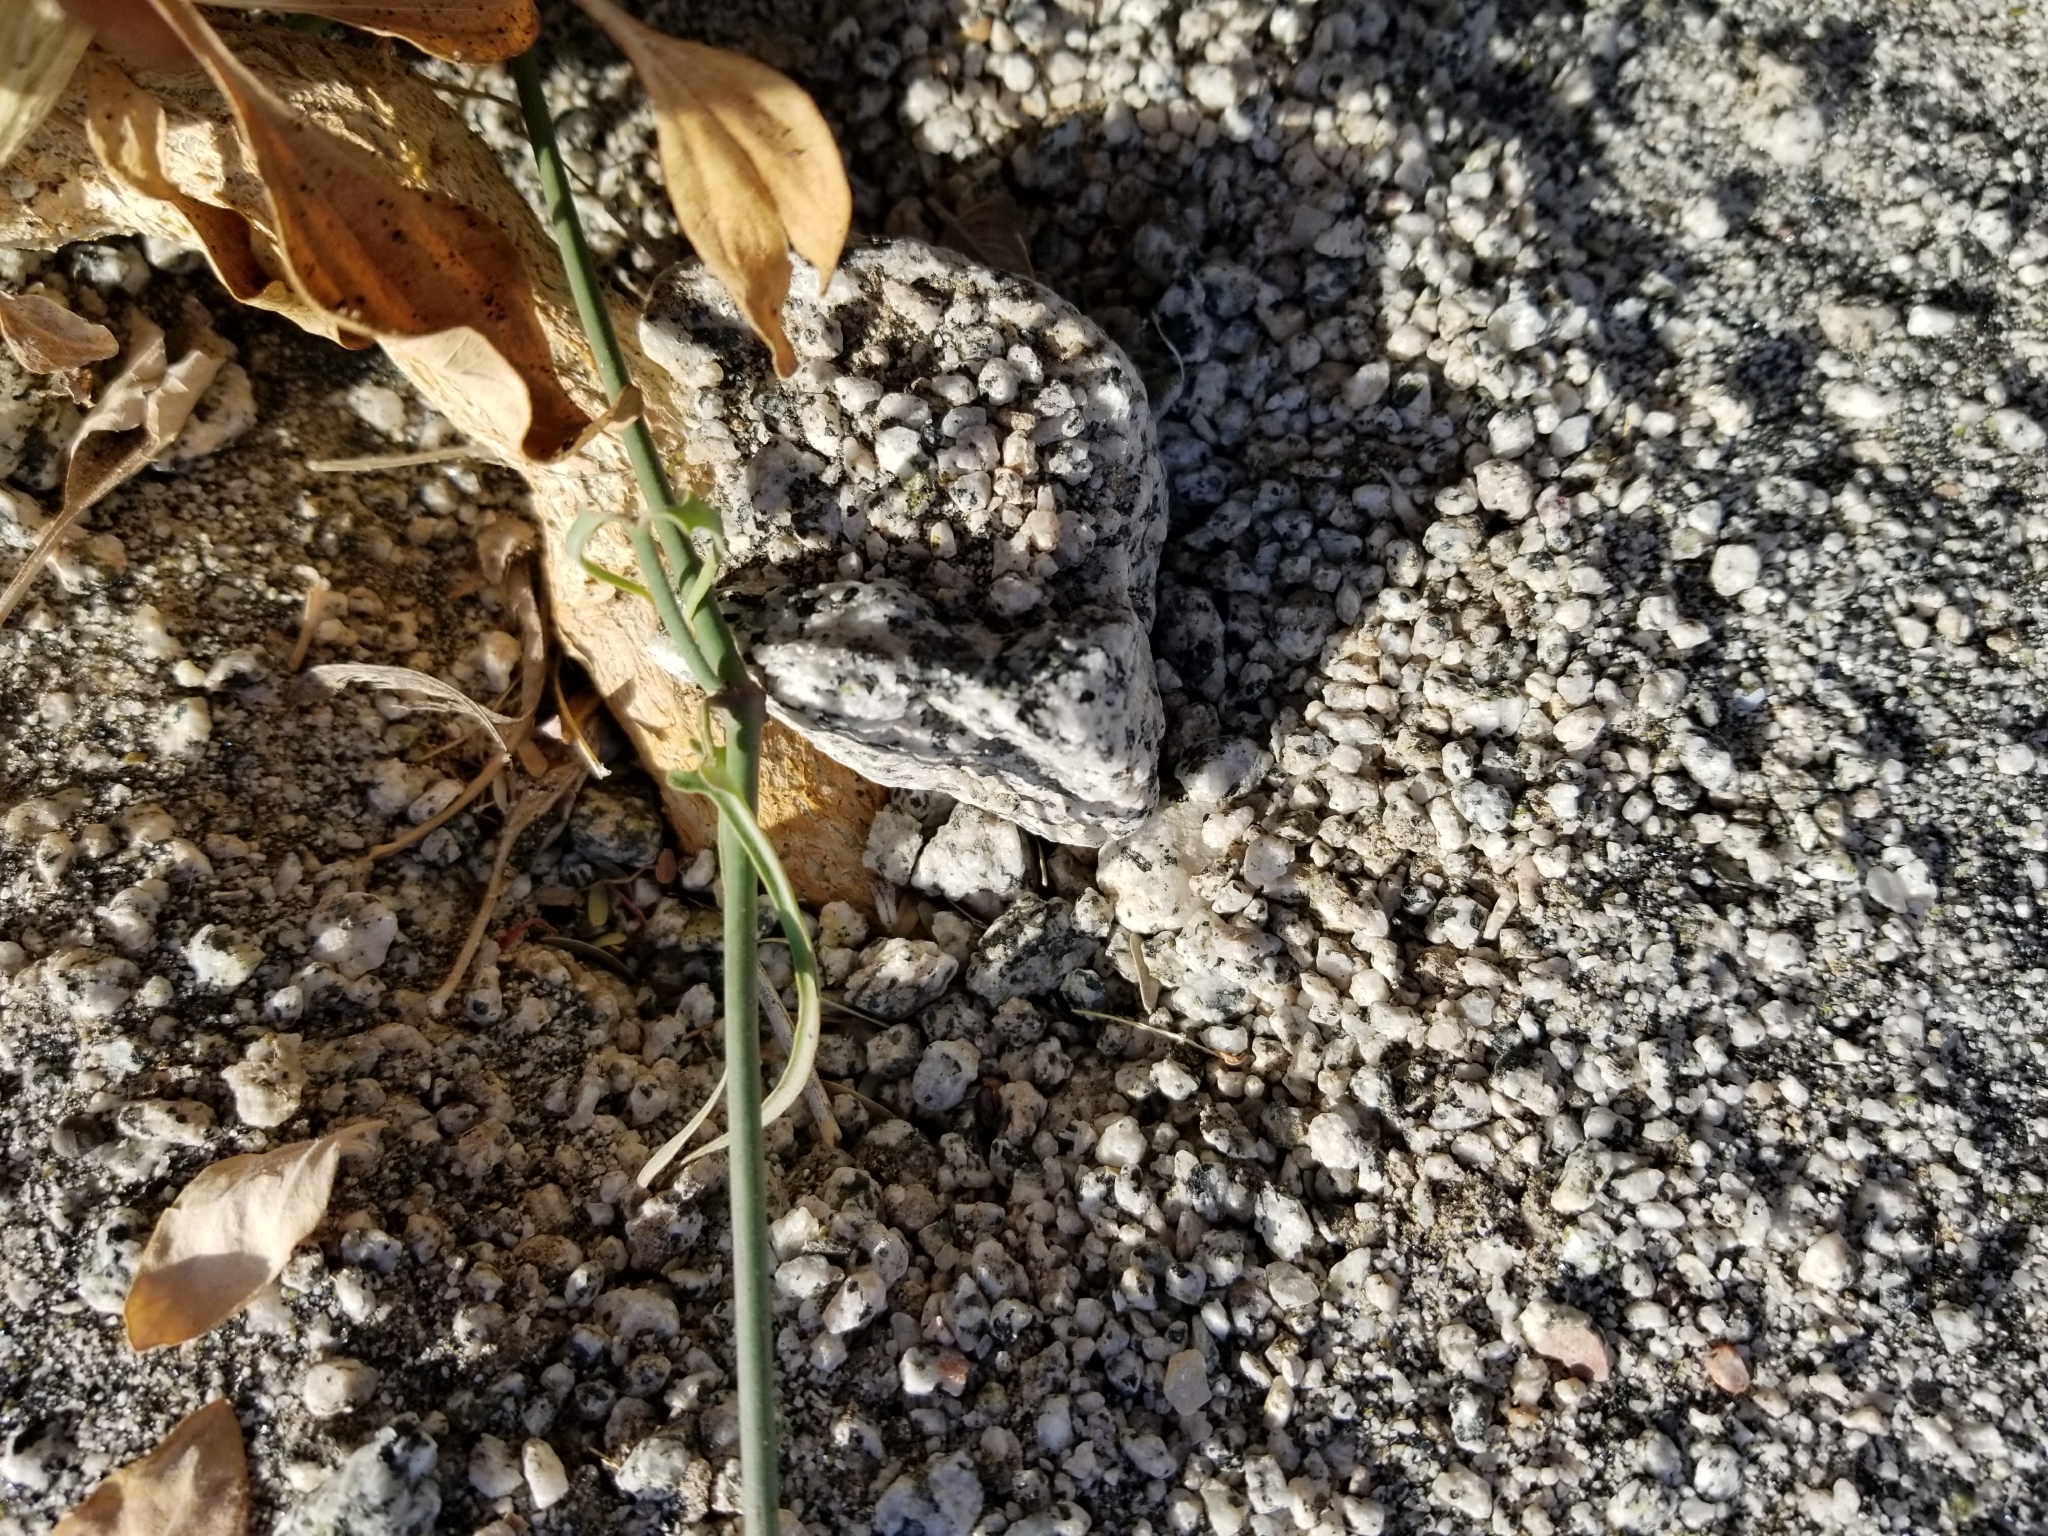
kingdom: Plantae
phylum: Tracheophyta
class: Magnoliopsida
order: Gentianales
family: Apocynaceae
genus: Funastrum
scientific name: Funastrum heterophyllum
